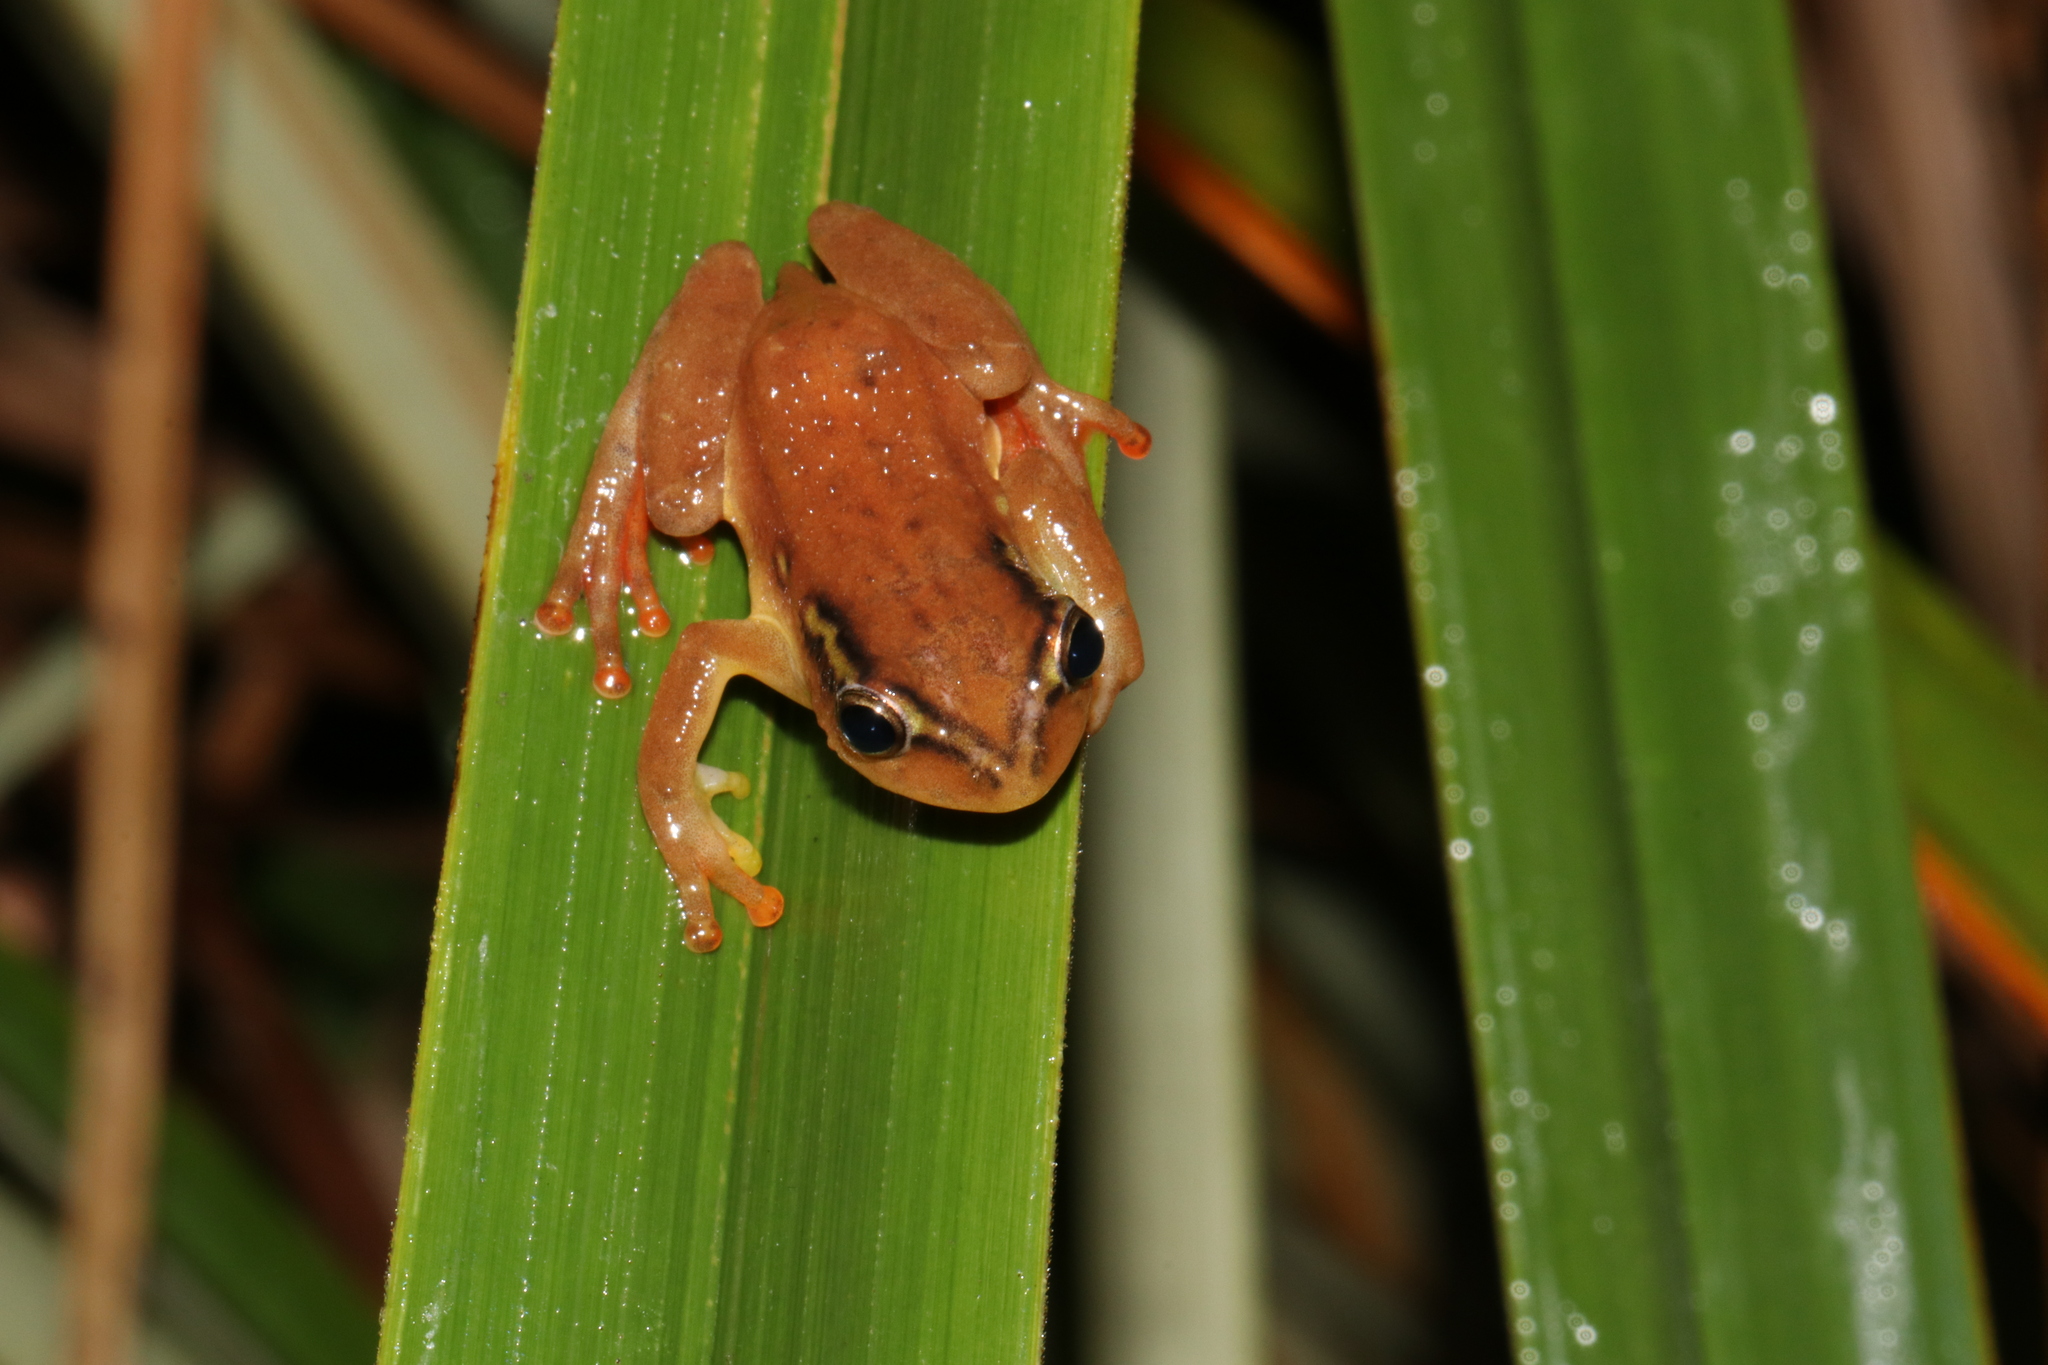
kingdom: Animalia
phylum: Chordata
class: Amphibia
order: Anura
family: Hyperoliidae
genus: Hyperolius
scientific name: Hyperolius substriatus
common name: Spotted reed frog
